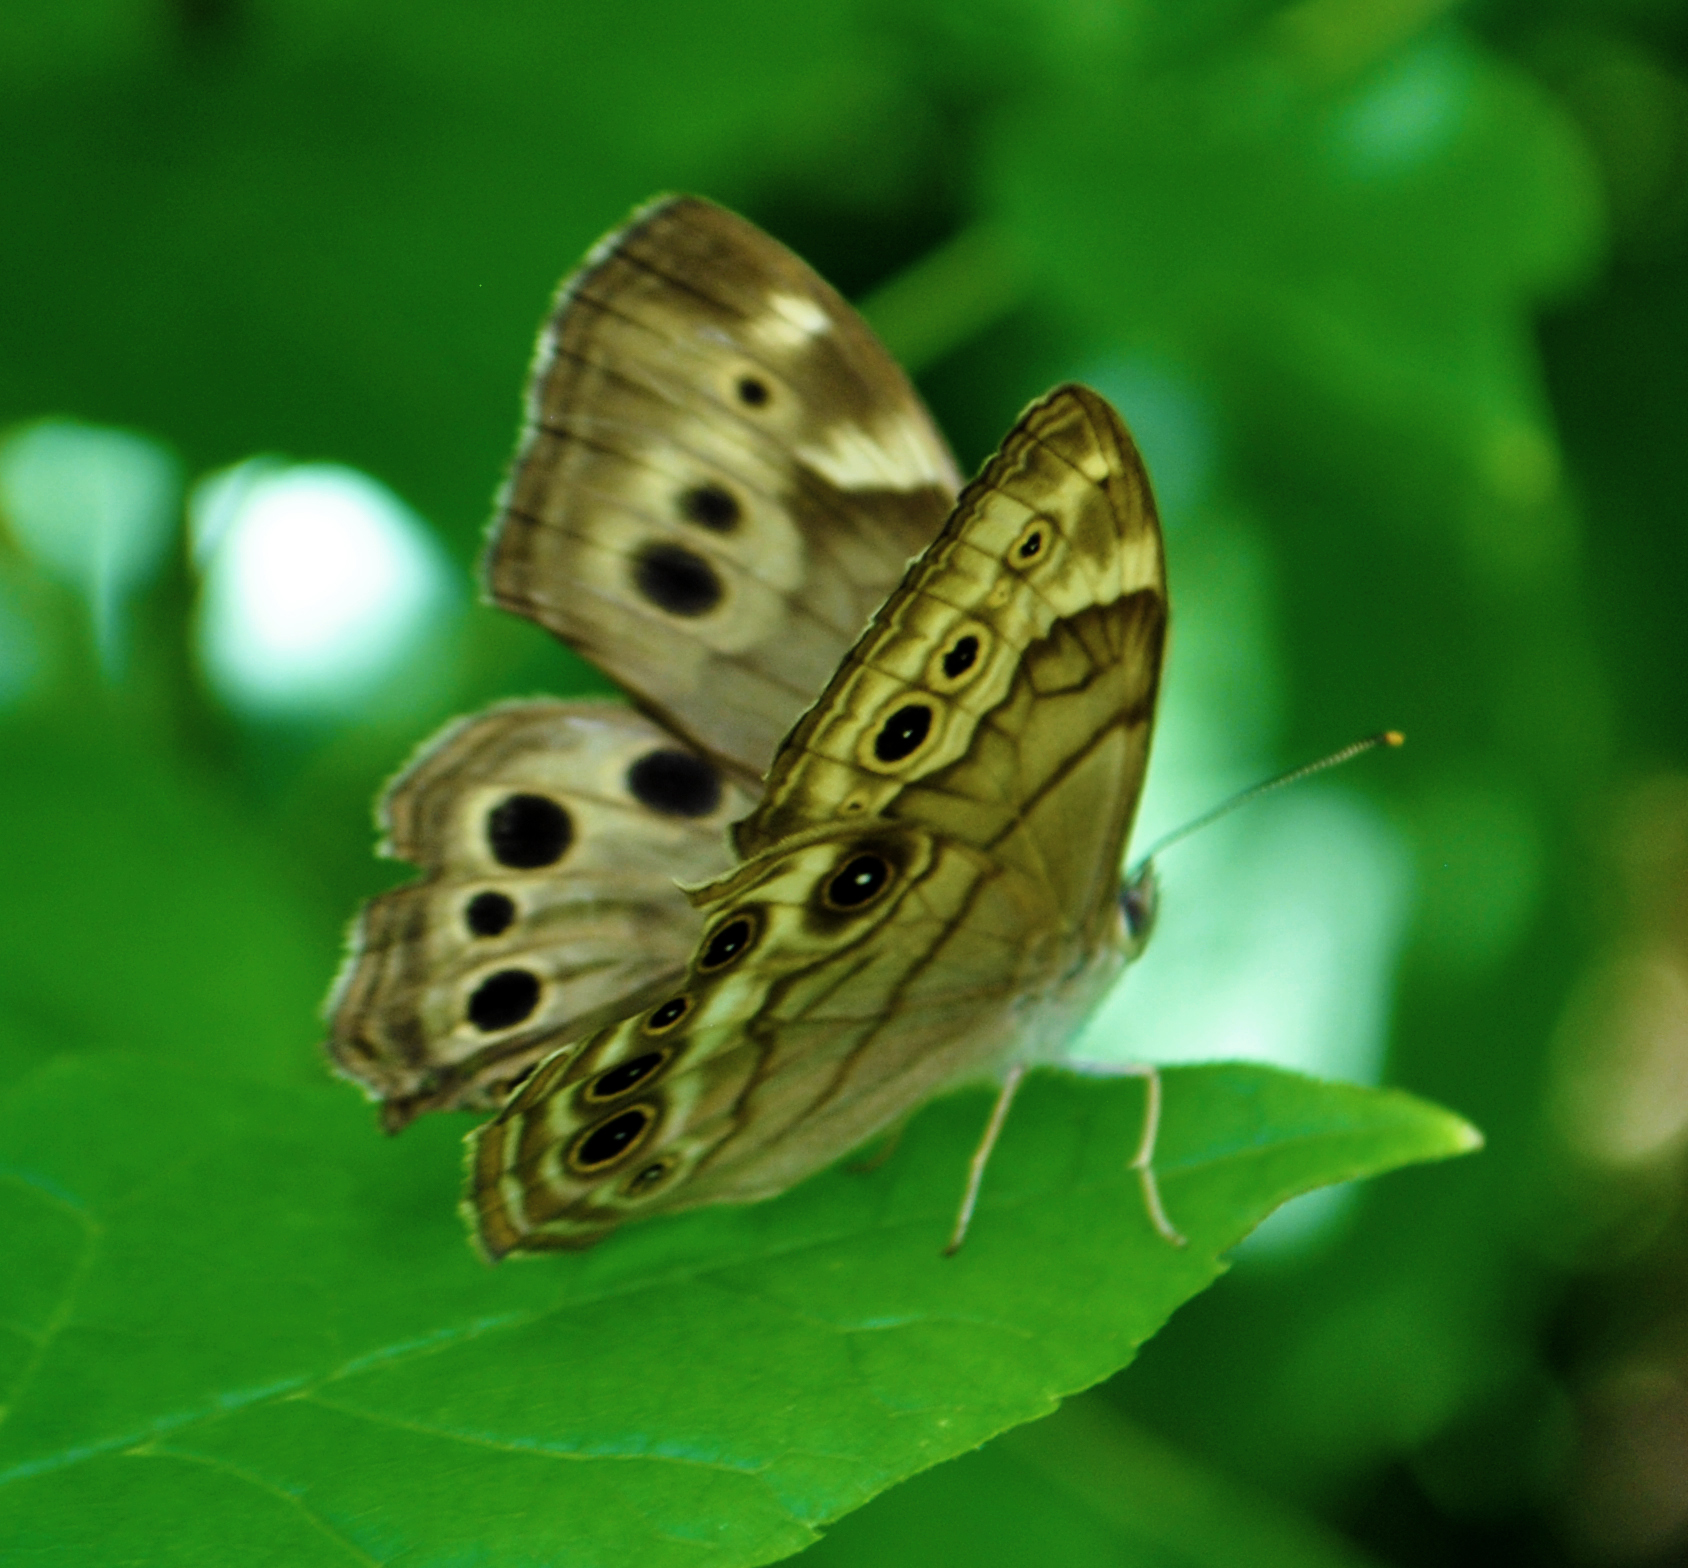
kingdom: Animalia
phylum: Arthropoda
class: Insecta
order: Lepidoptera
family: Nymphalidae
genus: Lethe
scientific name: Lethe anthedon
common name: Northern pearly-eye
